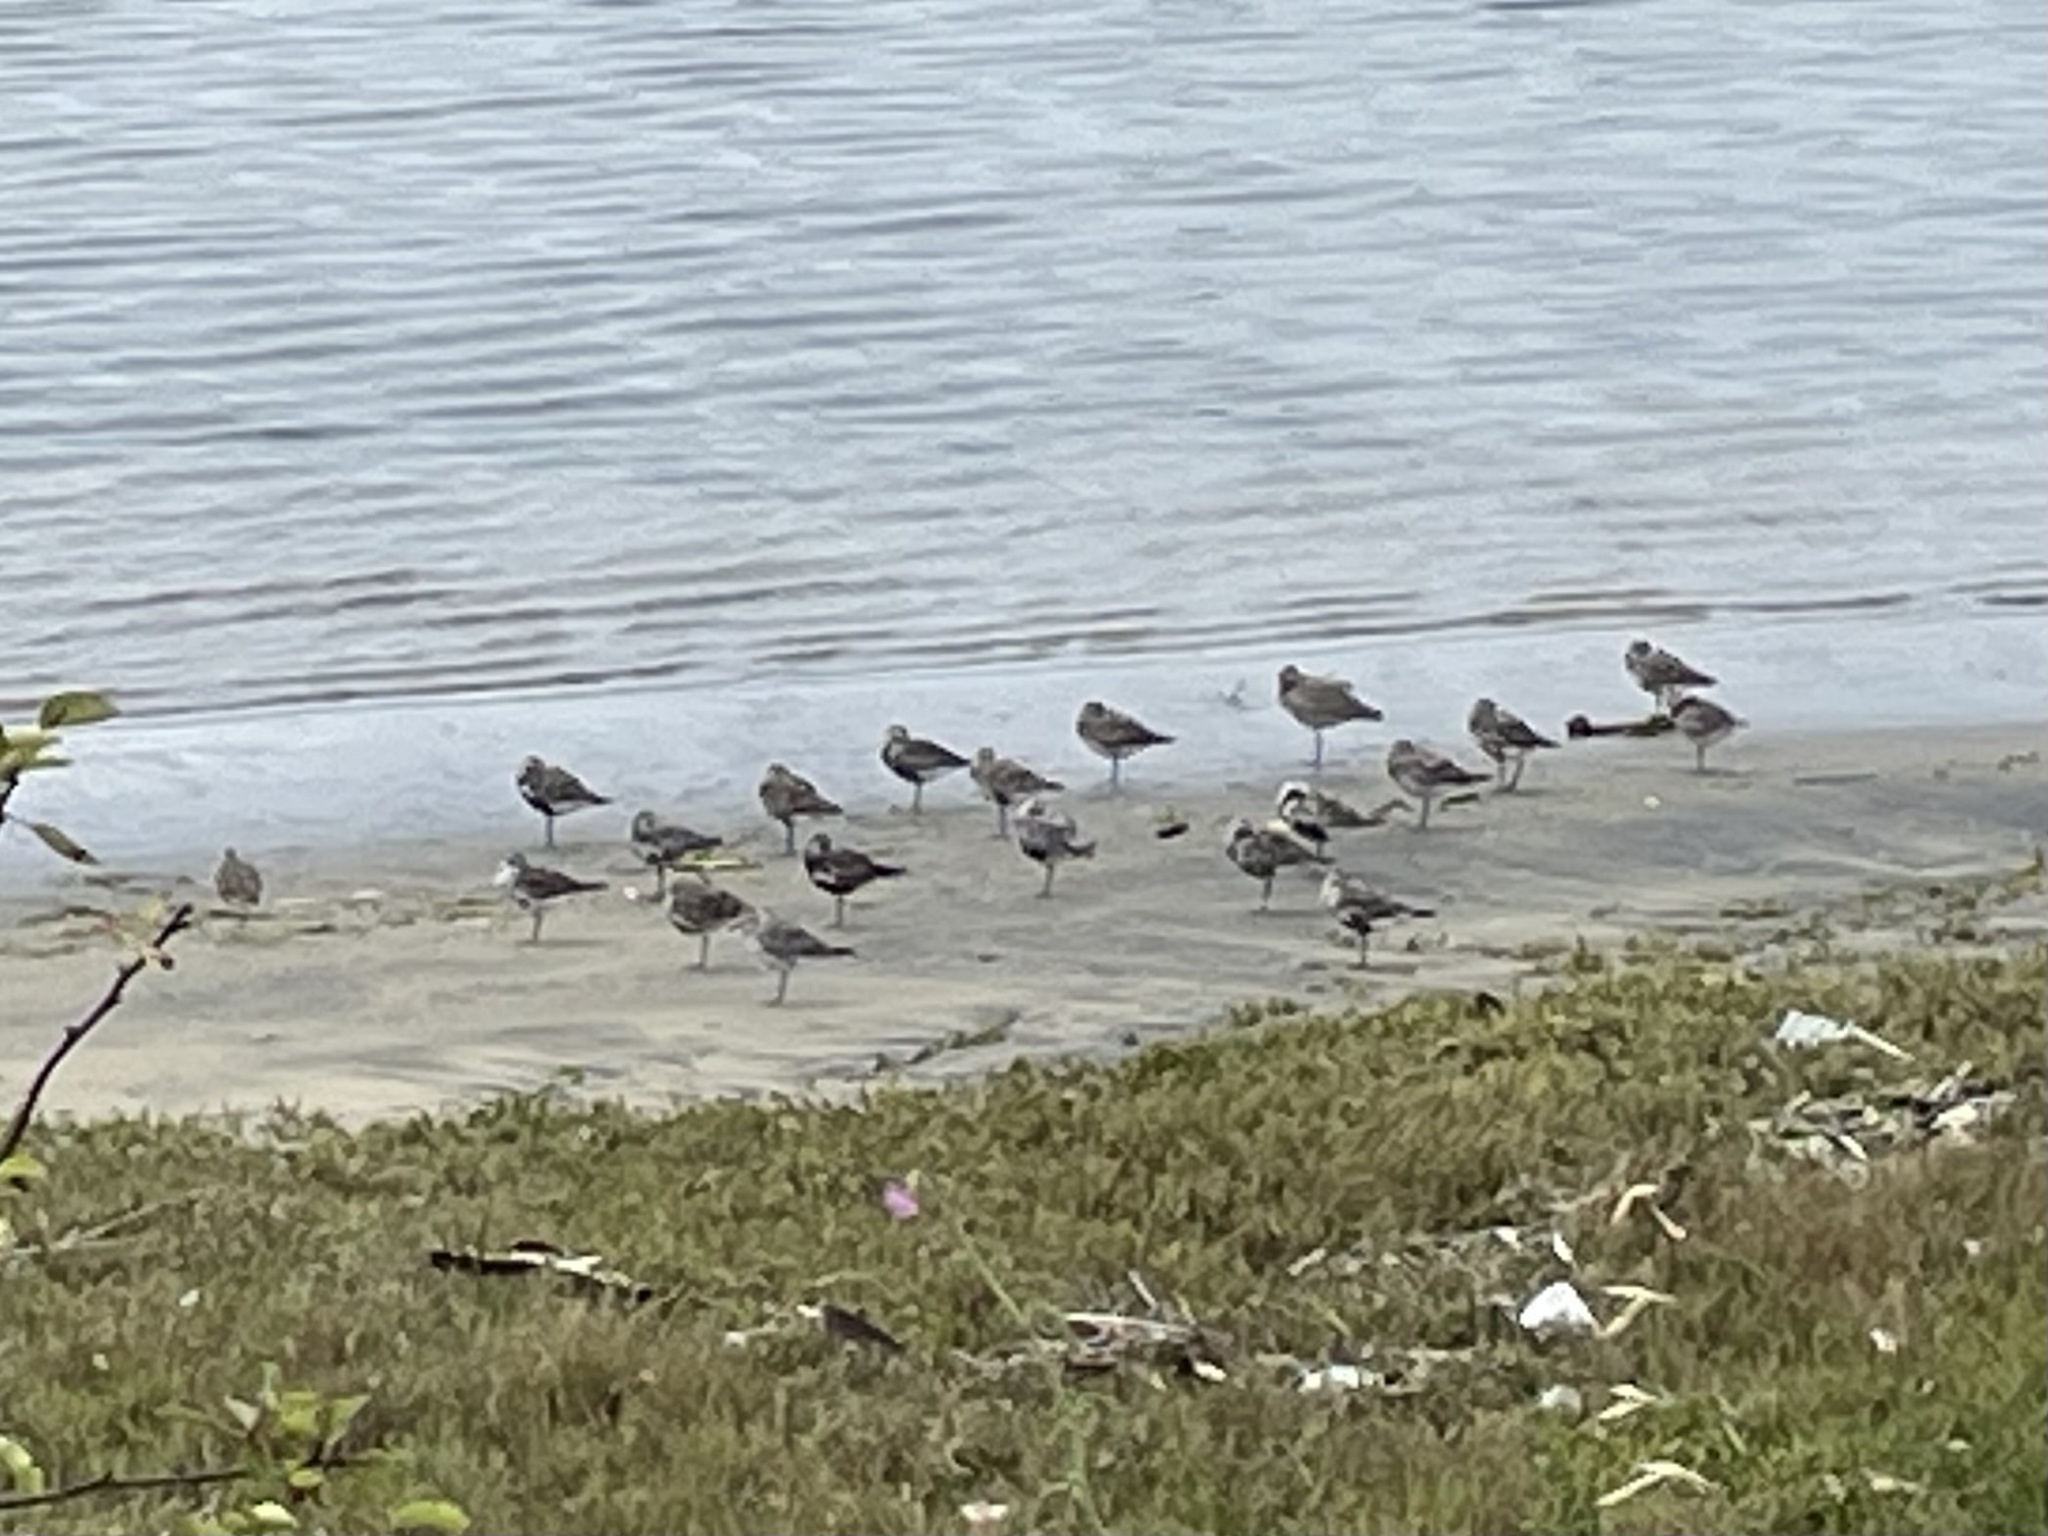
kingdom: Animalia
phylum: Chordata
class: Aves
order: Charadriiformes
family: Charadriidae
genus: Pluvialis
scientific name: Pluvialis squatarola
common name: Grey plover
